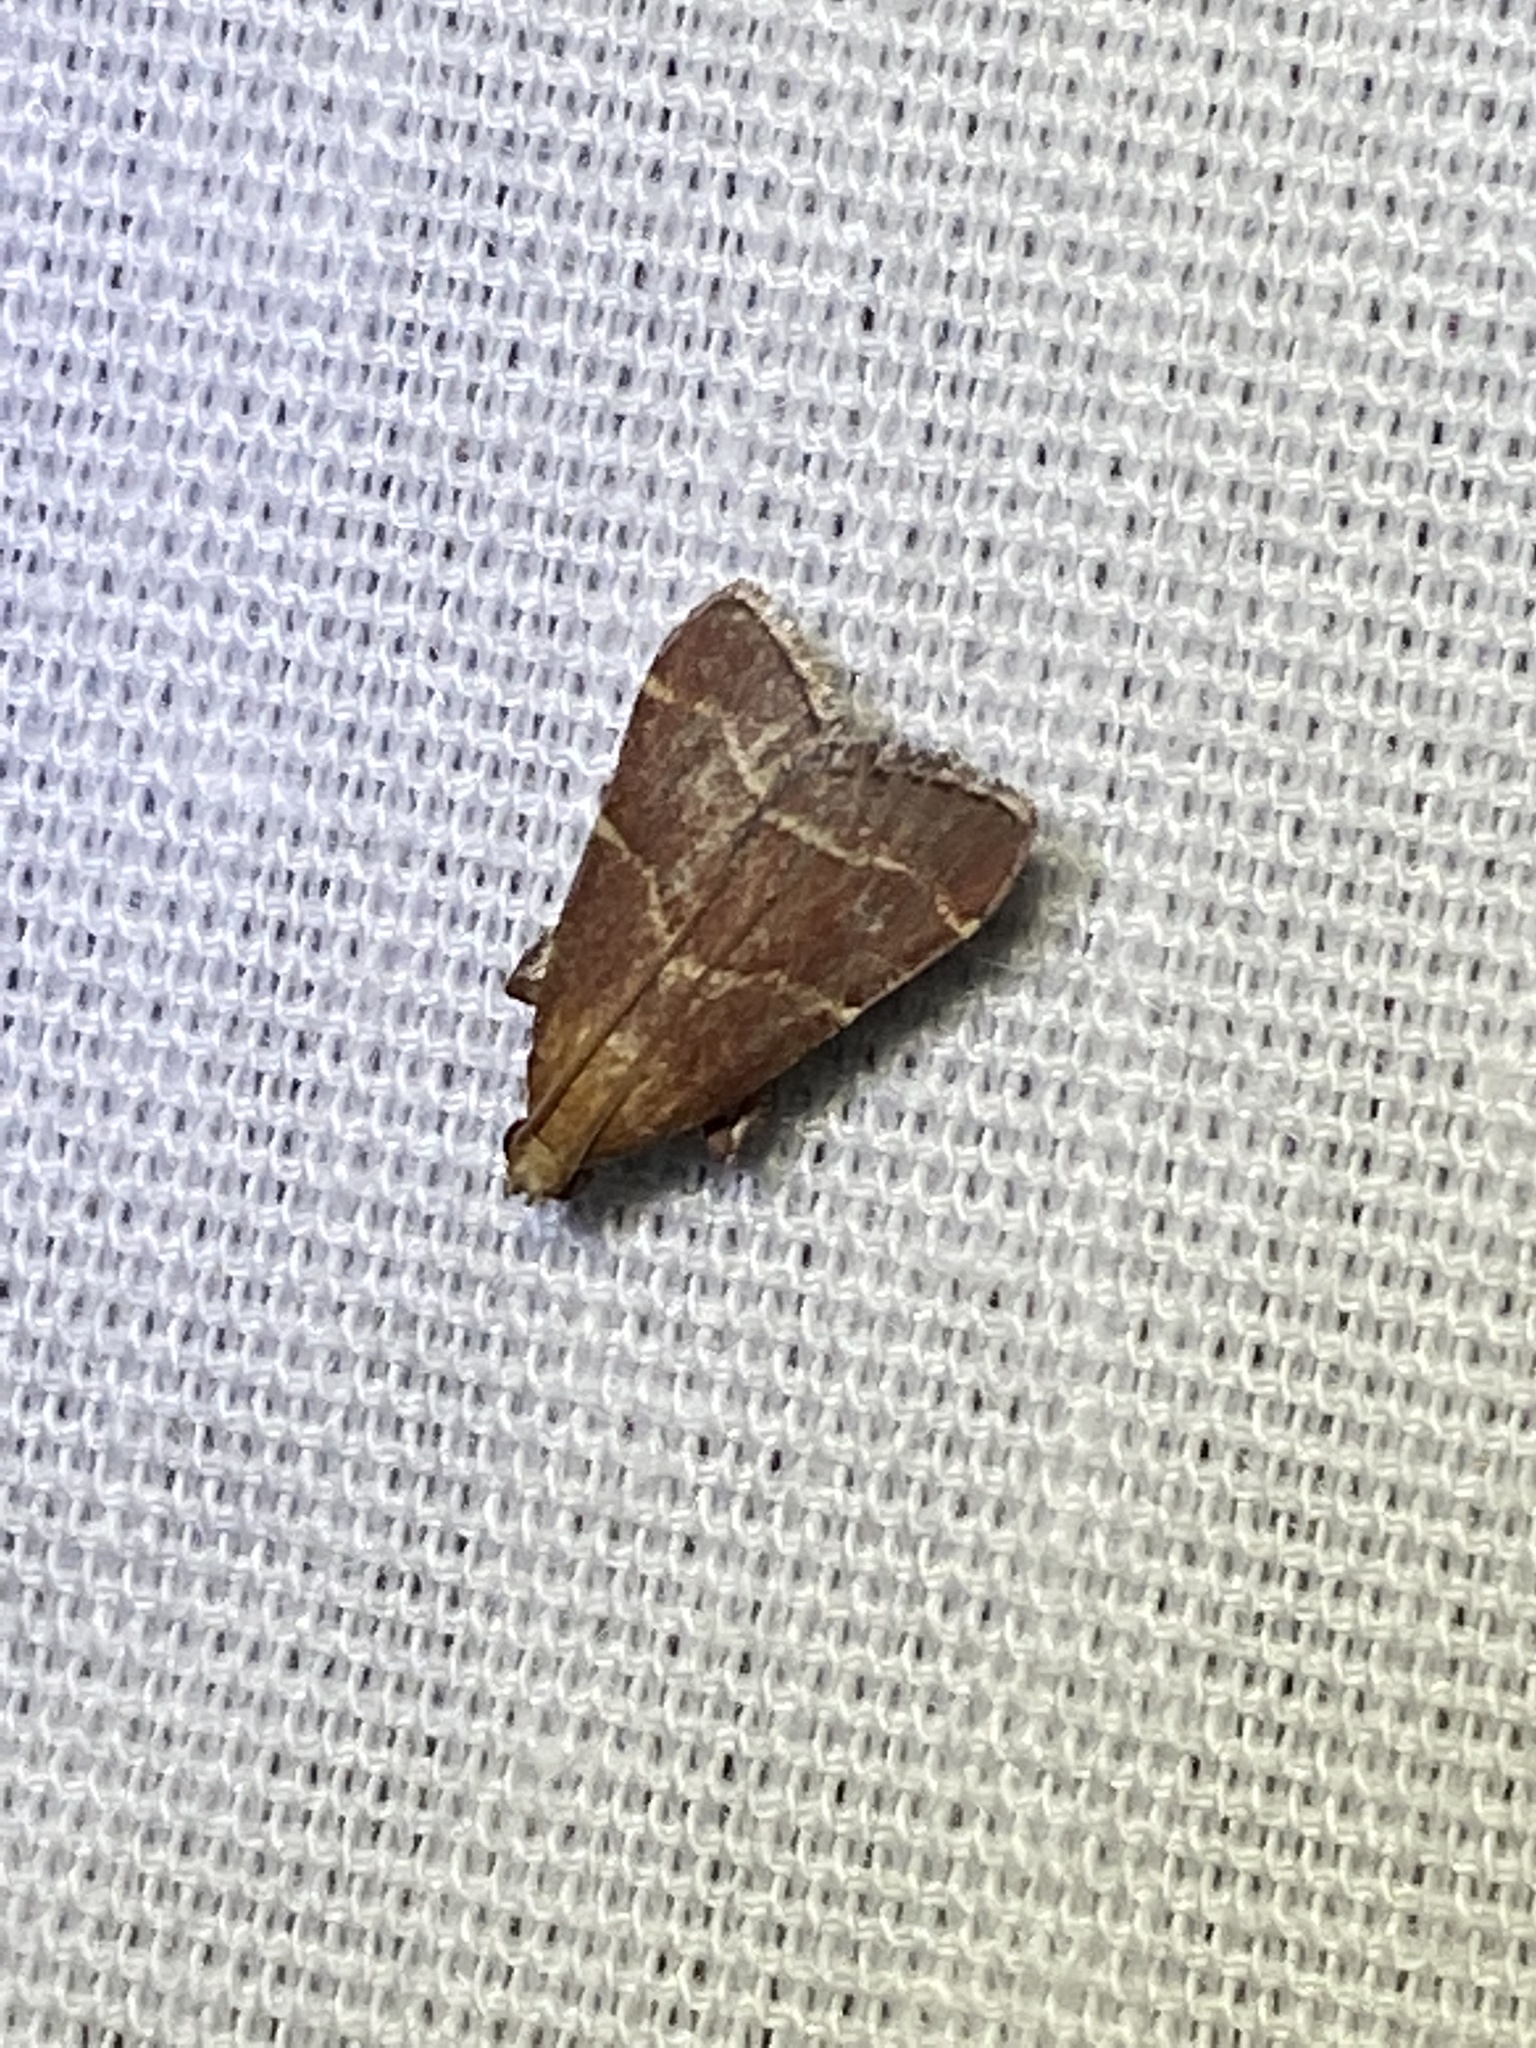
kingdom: Animalia
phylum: Arthropoda
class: Insecta
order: Lepidoptera
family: Pyralidae
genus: Arta
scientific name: Arta statalis
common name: Posturing arta moth
